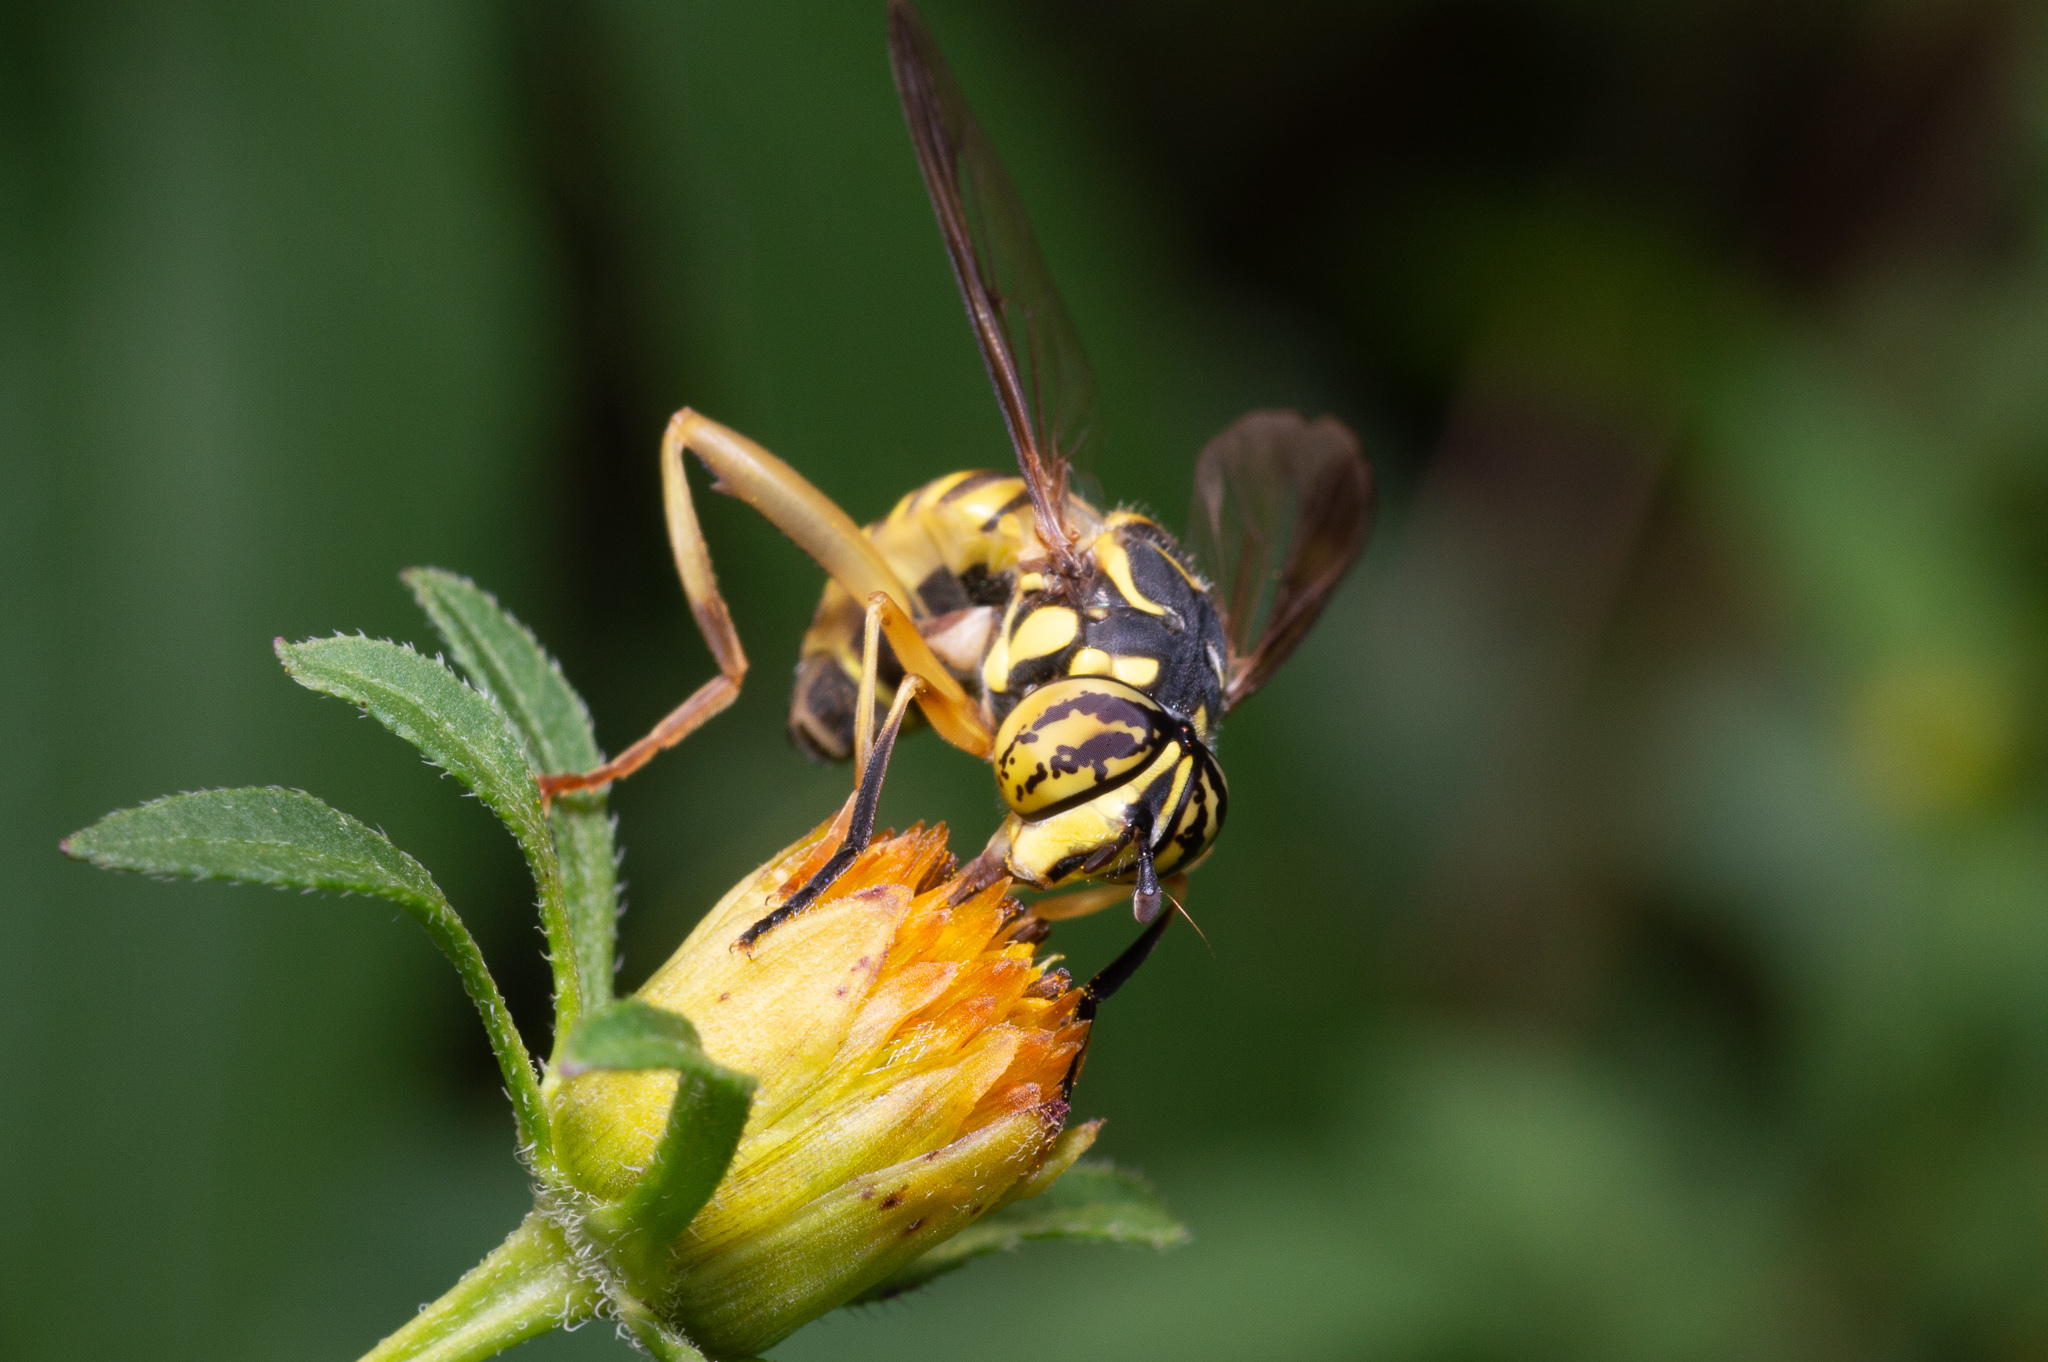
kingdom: Animalia
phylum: Arthropoda
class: Insecta
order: Diptera
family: Syrphidae
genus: Spilomyia
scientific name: Spilomyia longicornis
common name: Eastern hornet fly
